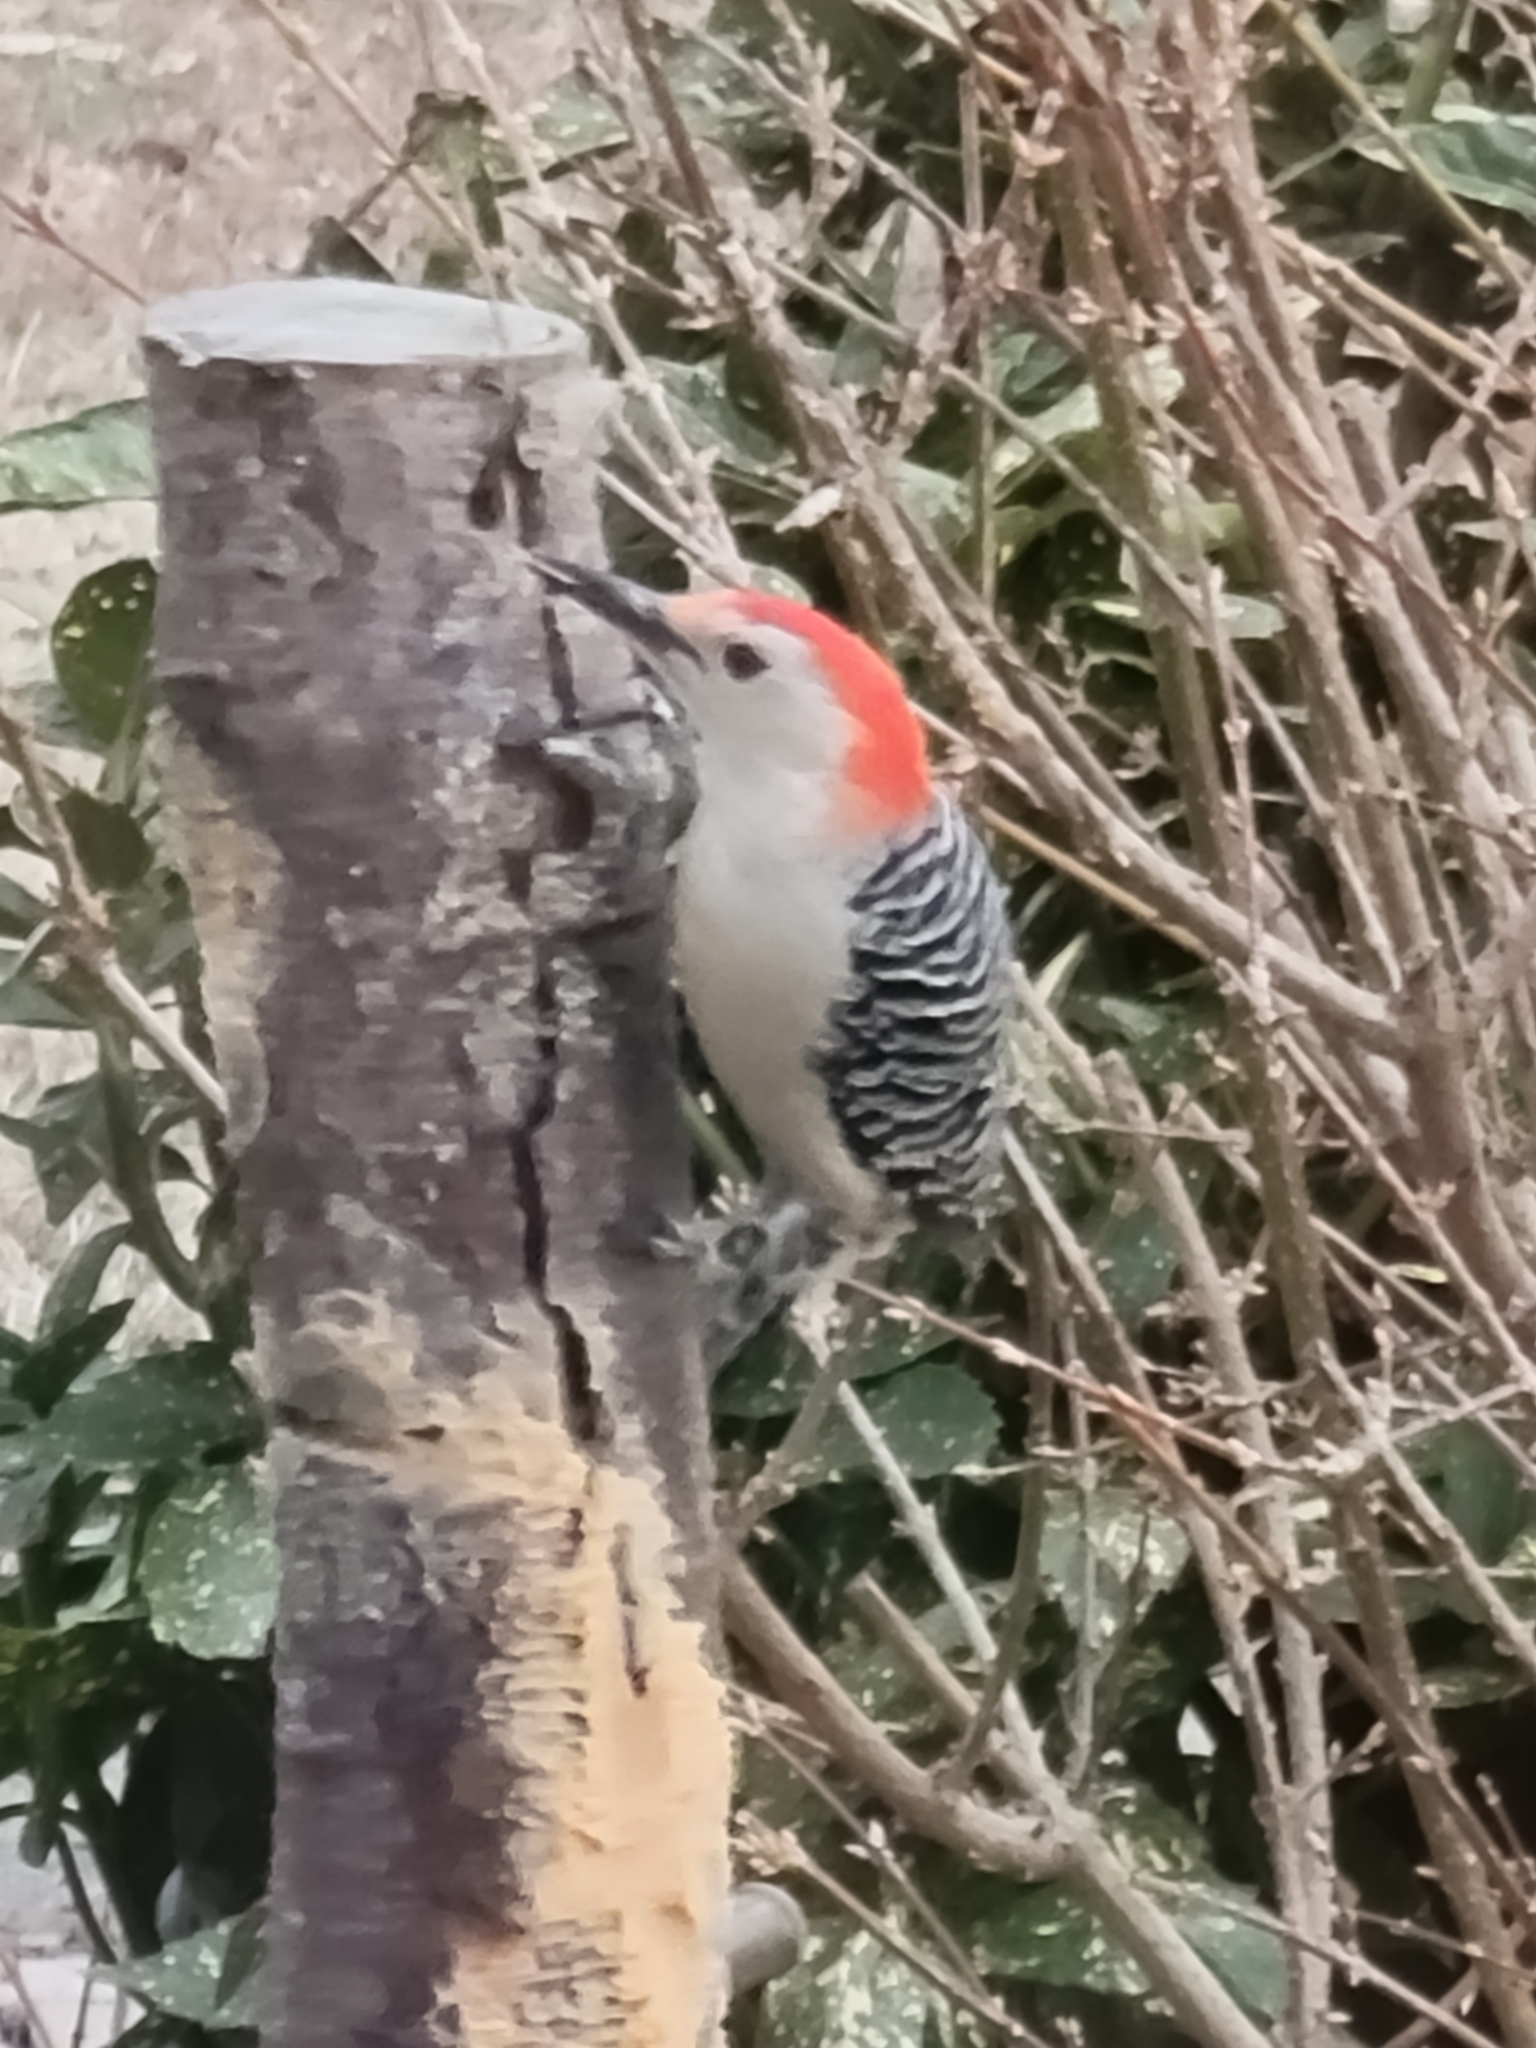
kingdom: Animalia
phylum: Chordata
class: Aves
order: Piciformes
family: Picidae
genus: Melanerpes
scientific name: Melanerpes carolinus
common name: Red-bellied woodpecker
